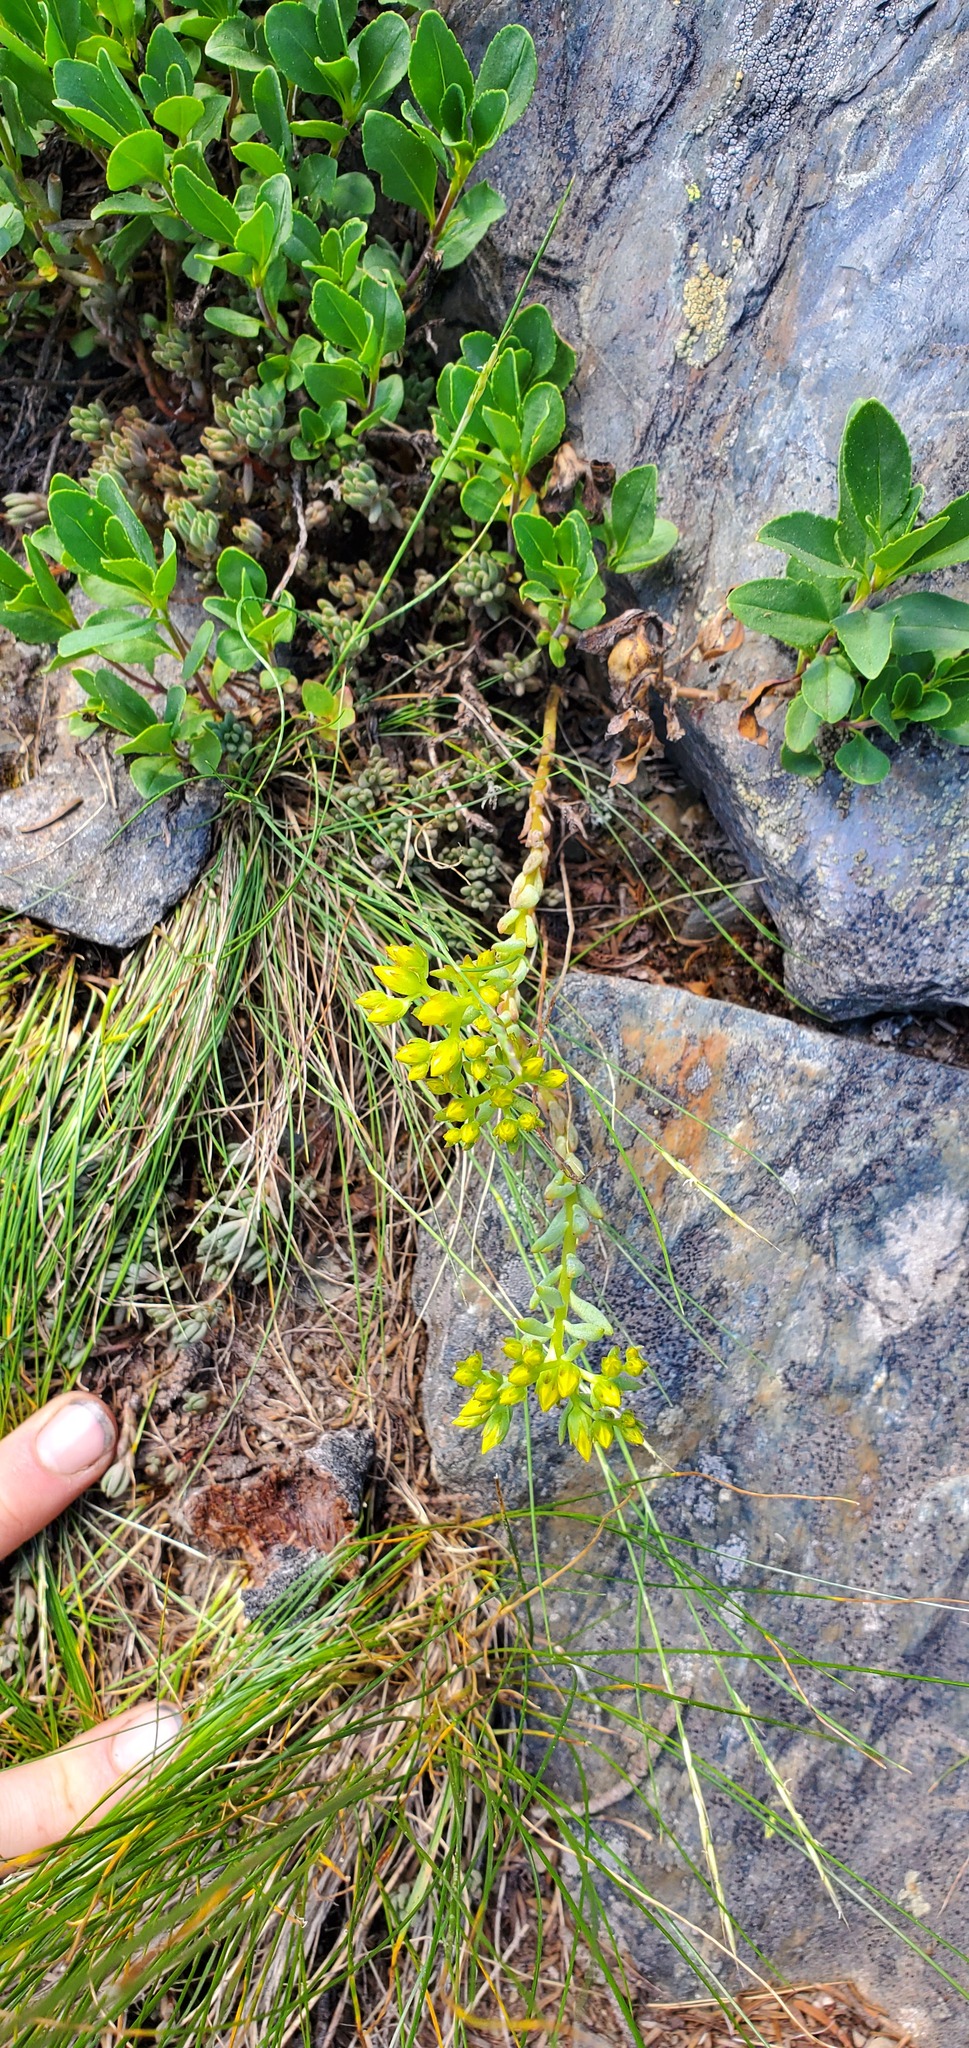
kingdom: Plantae
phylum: Tracheophyta
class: Magnoliopsida
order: Saxifragales
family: Crassulaceae
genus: Sedum
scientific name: Sedum lanceolatum
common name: Common stonecrop
